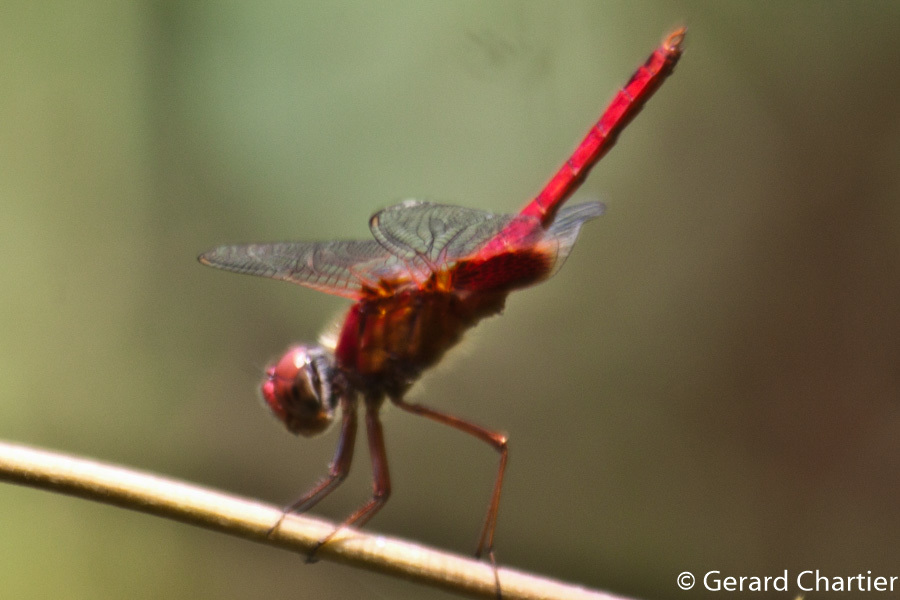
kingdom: Animalia
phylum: Arthropoda
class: Insecta
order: Odonata
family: Libellulidae
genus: Urothemis
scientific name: Urothemis signata
